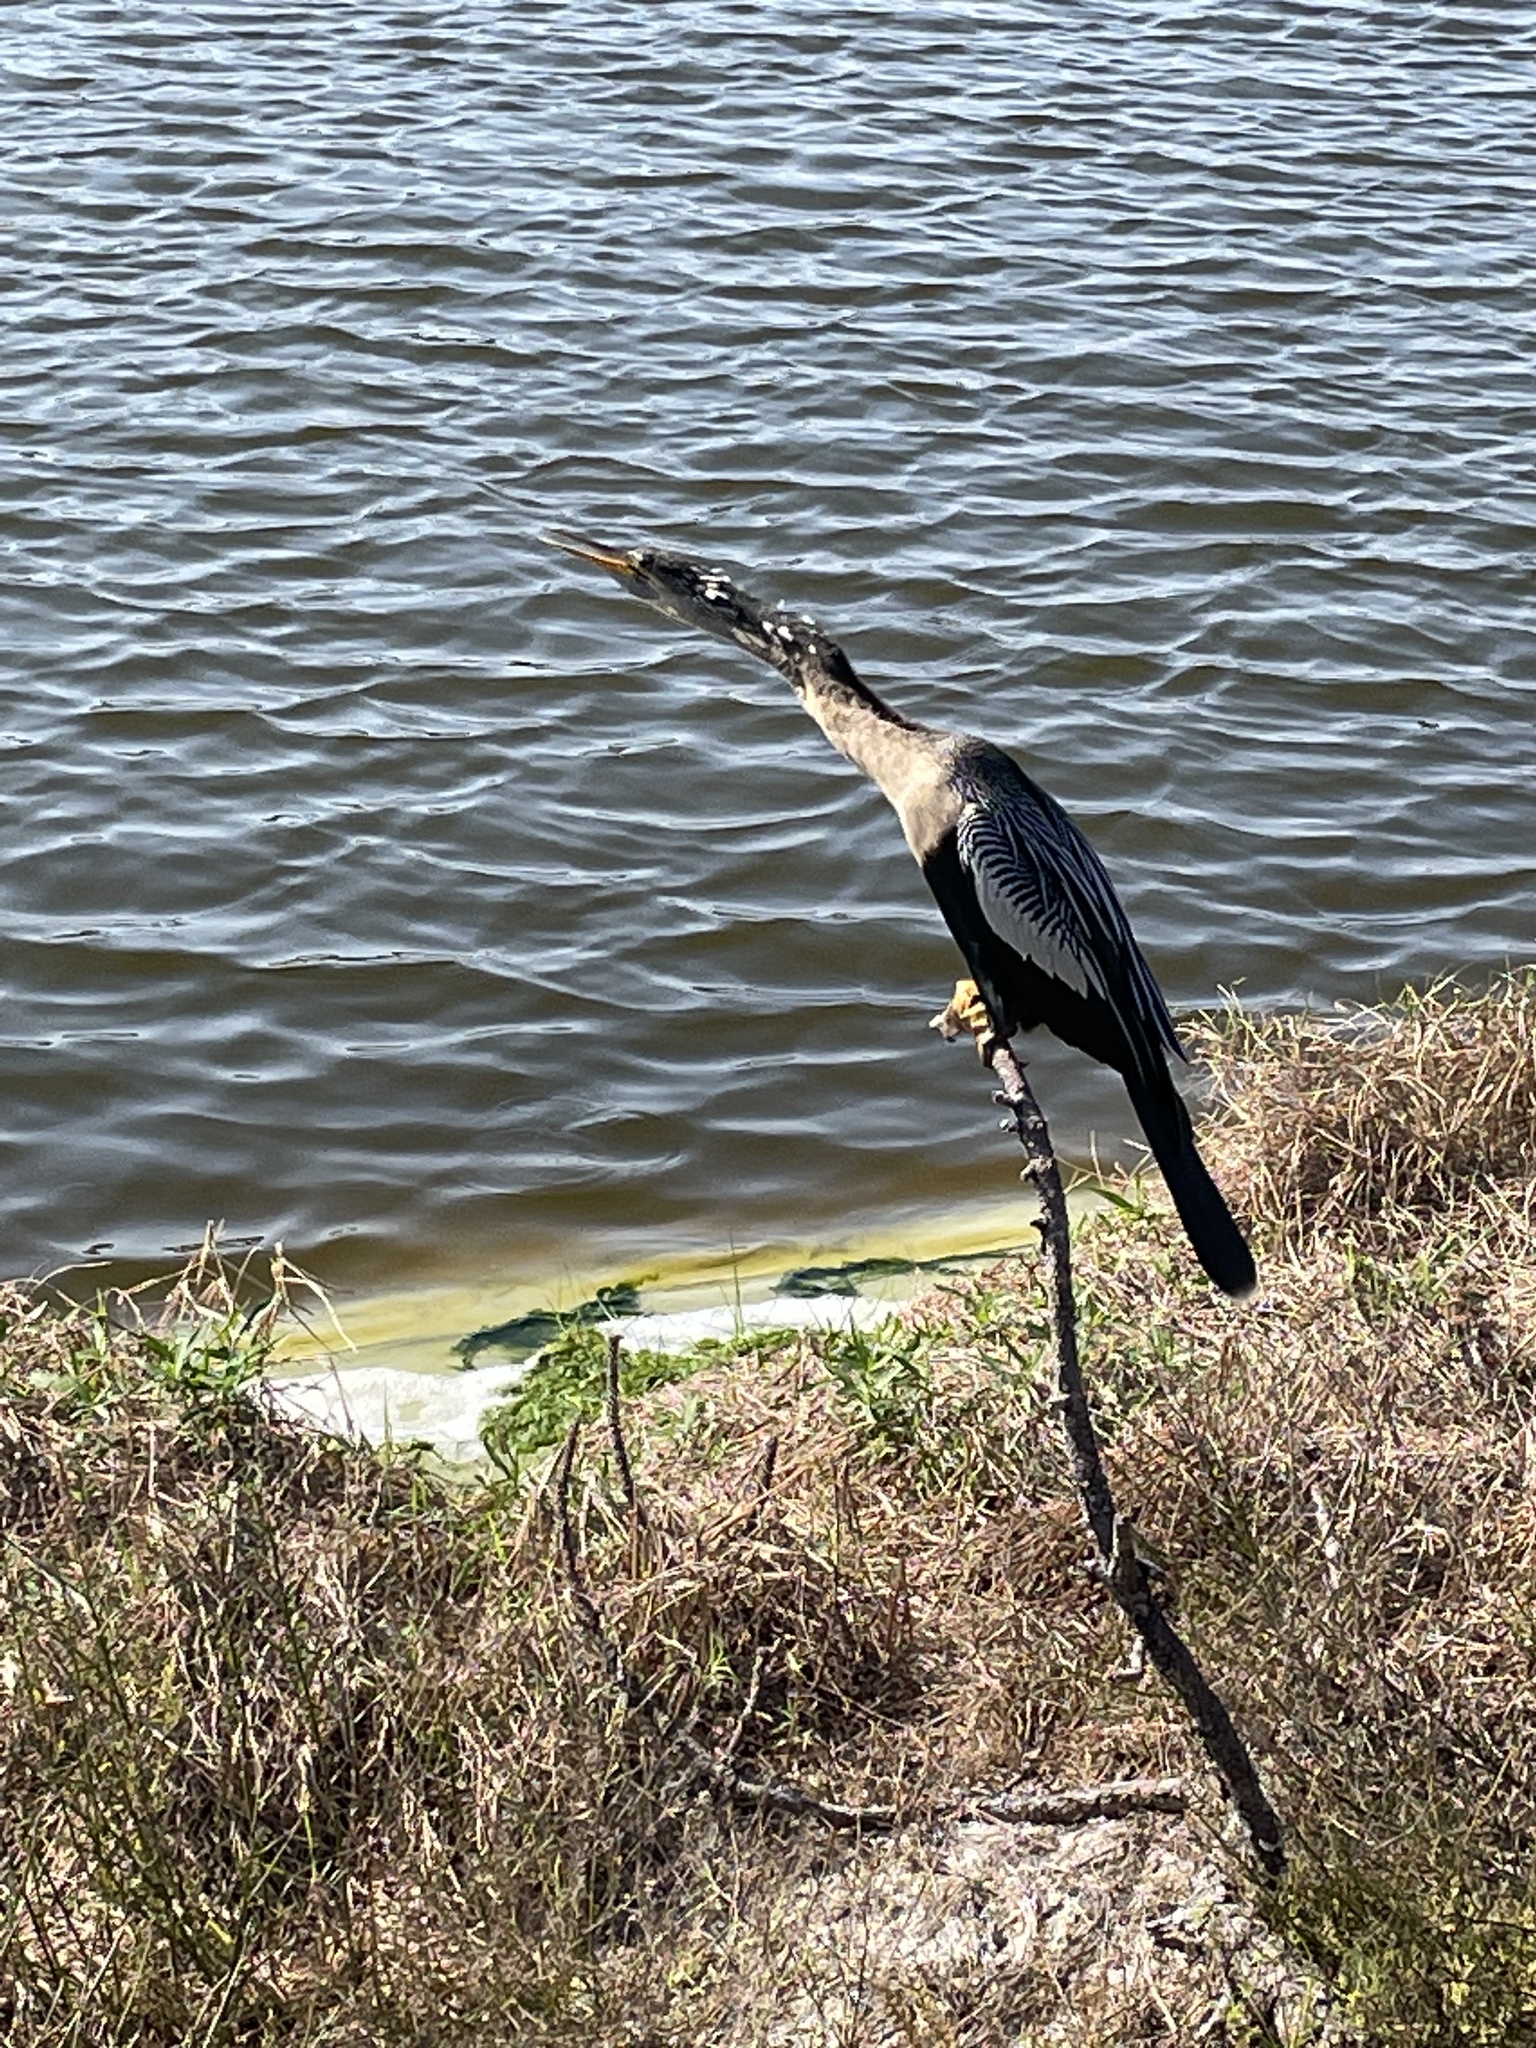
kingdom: Animalia
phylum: Chordata
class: Aves
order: Suliformes
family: Anhingidae
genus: Anhinga
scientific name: Anhinga anhinga
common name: Anhinga
